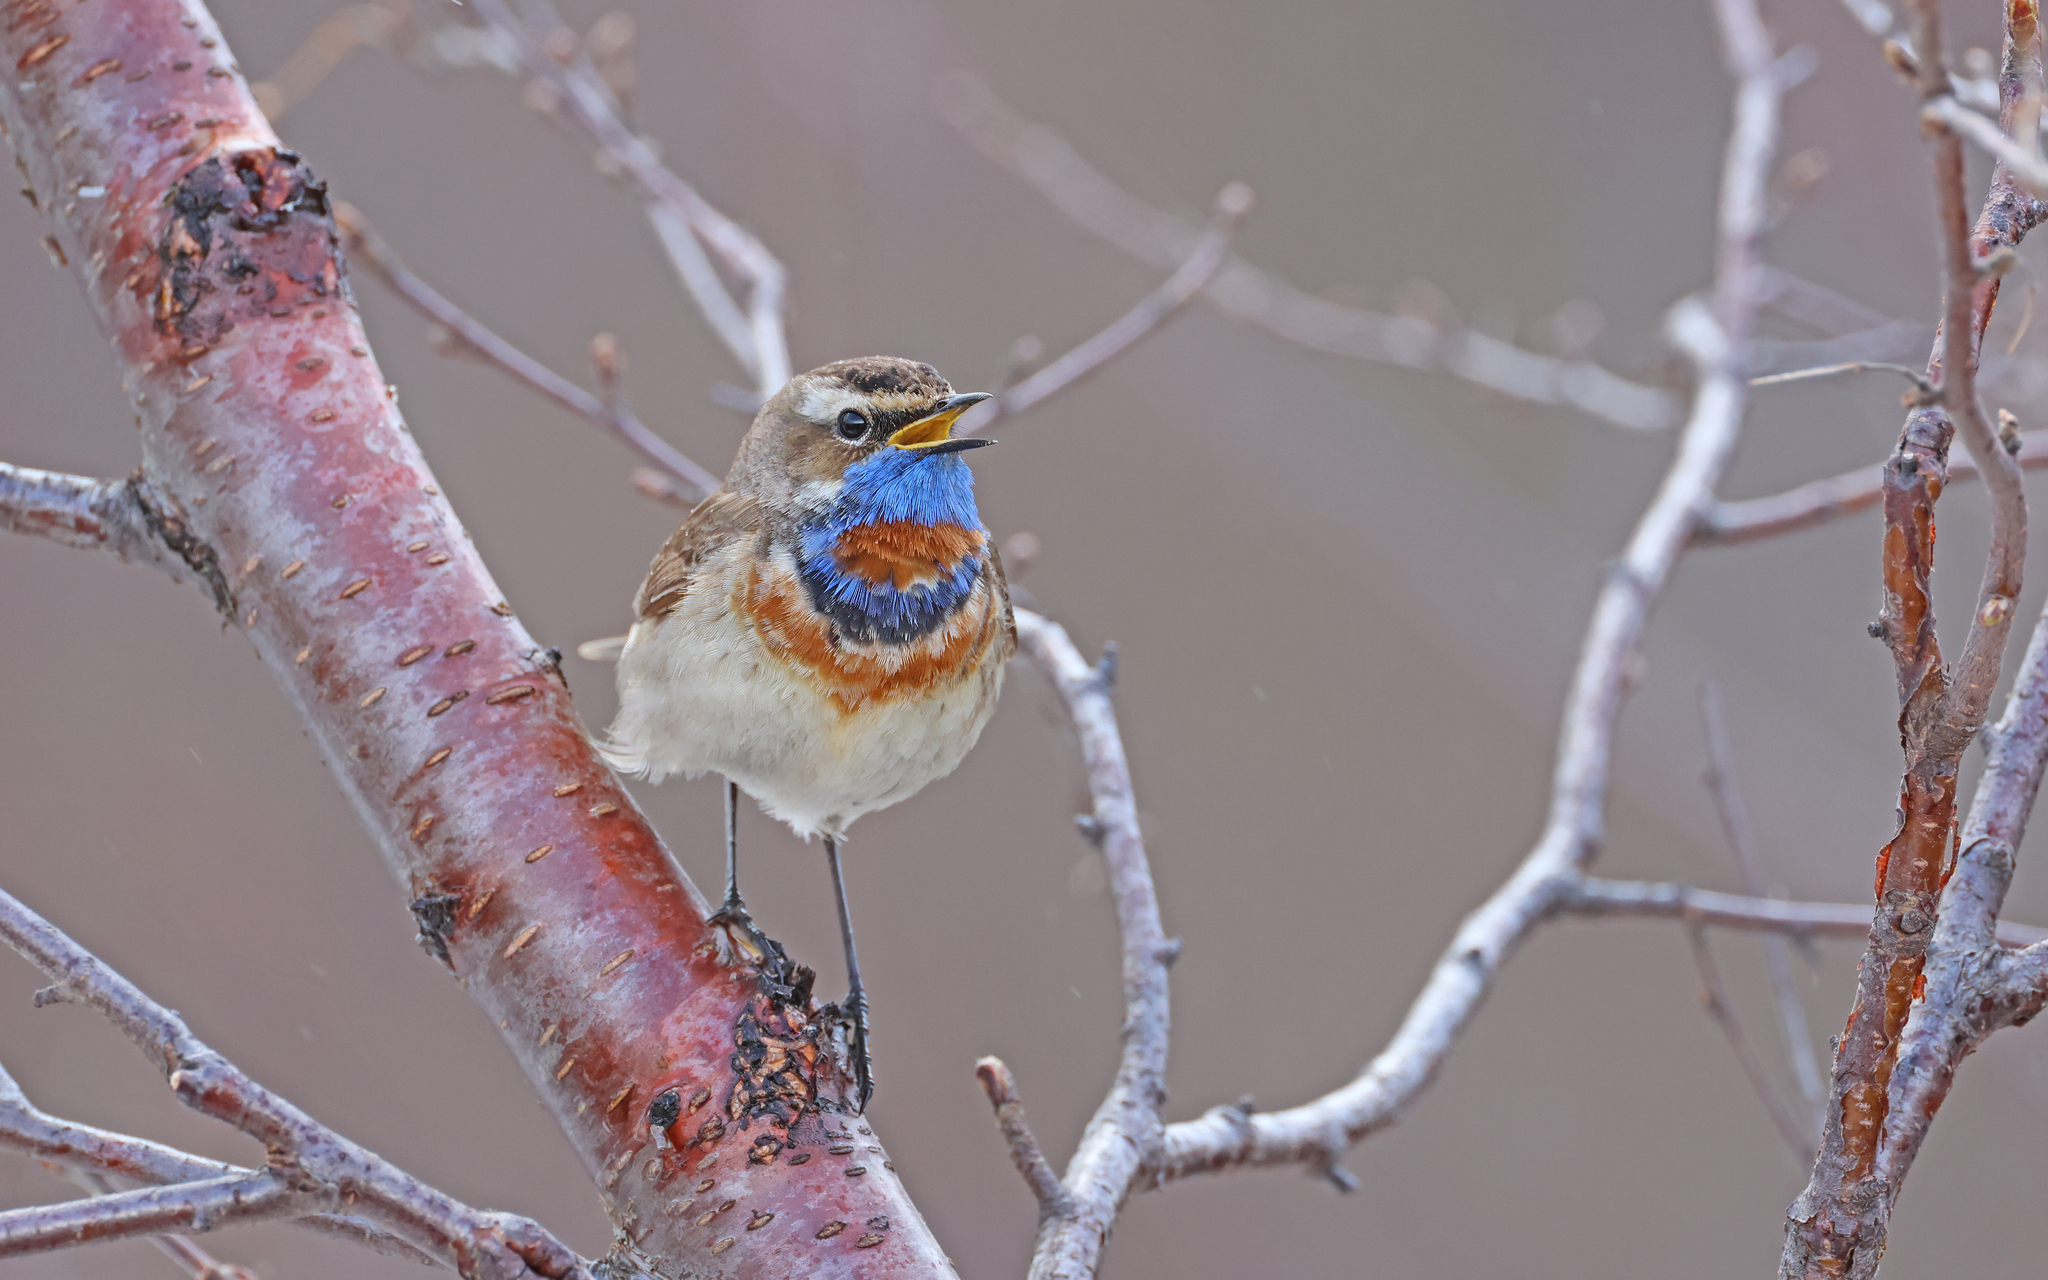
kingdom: Animalia
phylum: Chordata
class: Aves
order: Passeriformes
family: Muscicapidae
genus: Luscinia
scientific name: Luscinia svecica
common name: Bluethroat
